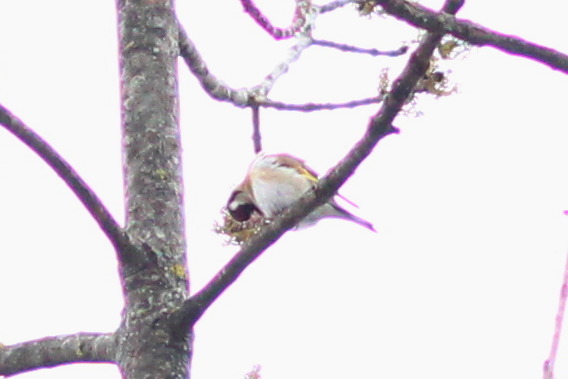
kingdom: Animalia
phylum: Chordata
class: Aves
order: Passeriformes
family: Fringillidae
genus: Carduelis
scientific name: Carduelis carduelis
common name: European goldfinch
